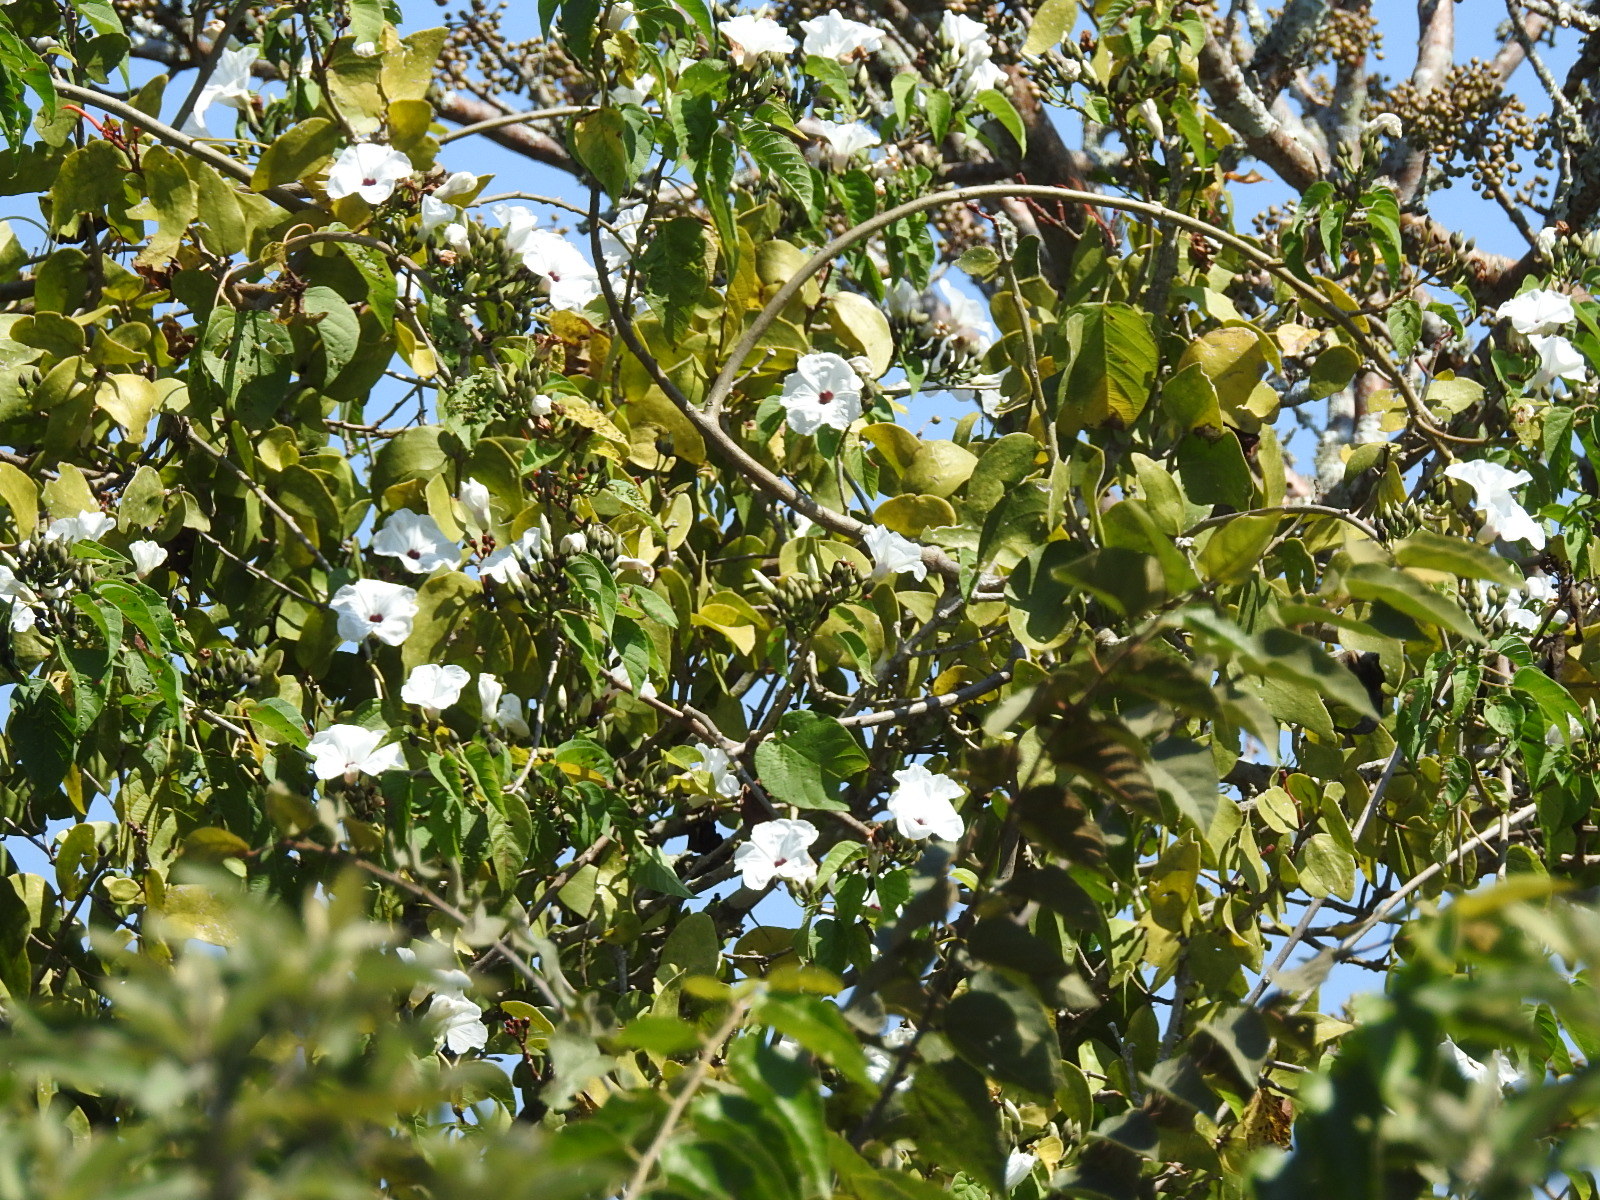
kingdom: Plantae
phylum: Tracheophyta
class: Magnoliopsida
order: Solanales
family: Convolvulaceae
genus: Ipomoea
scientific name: Ipomoea pauciflora
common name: Tree morningglory
